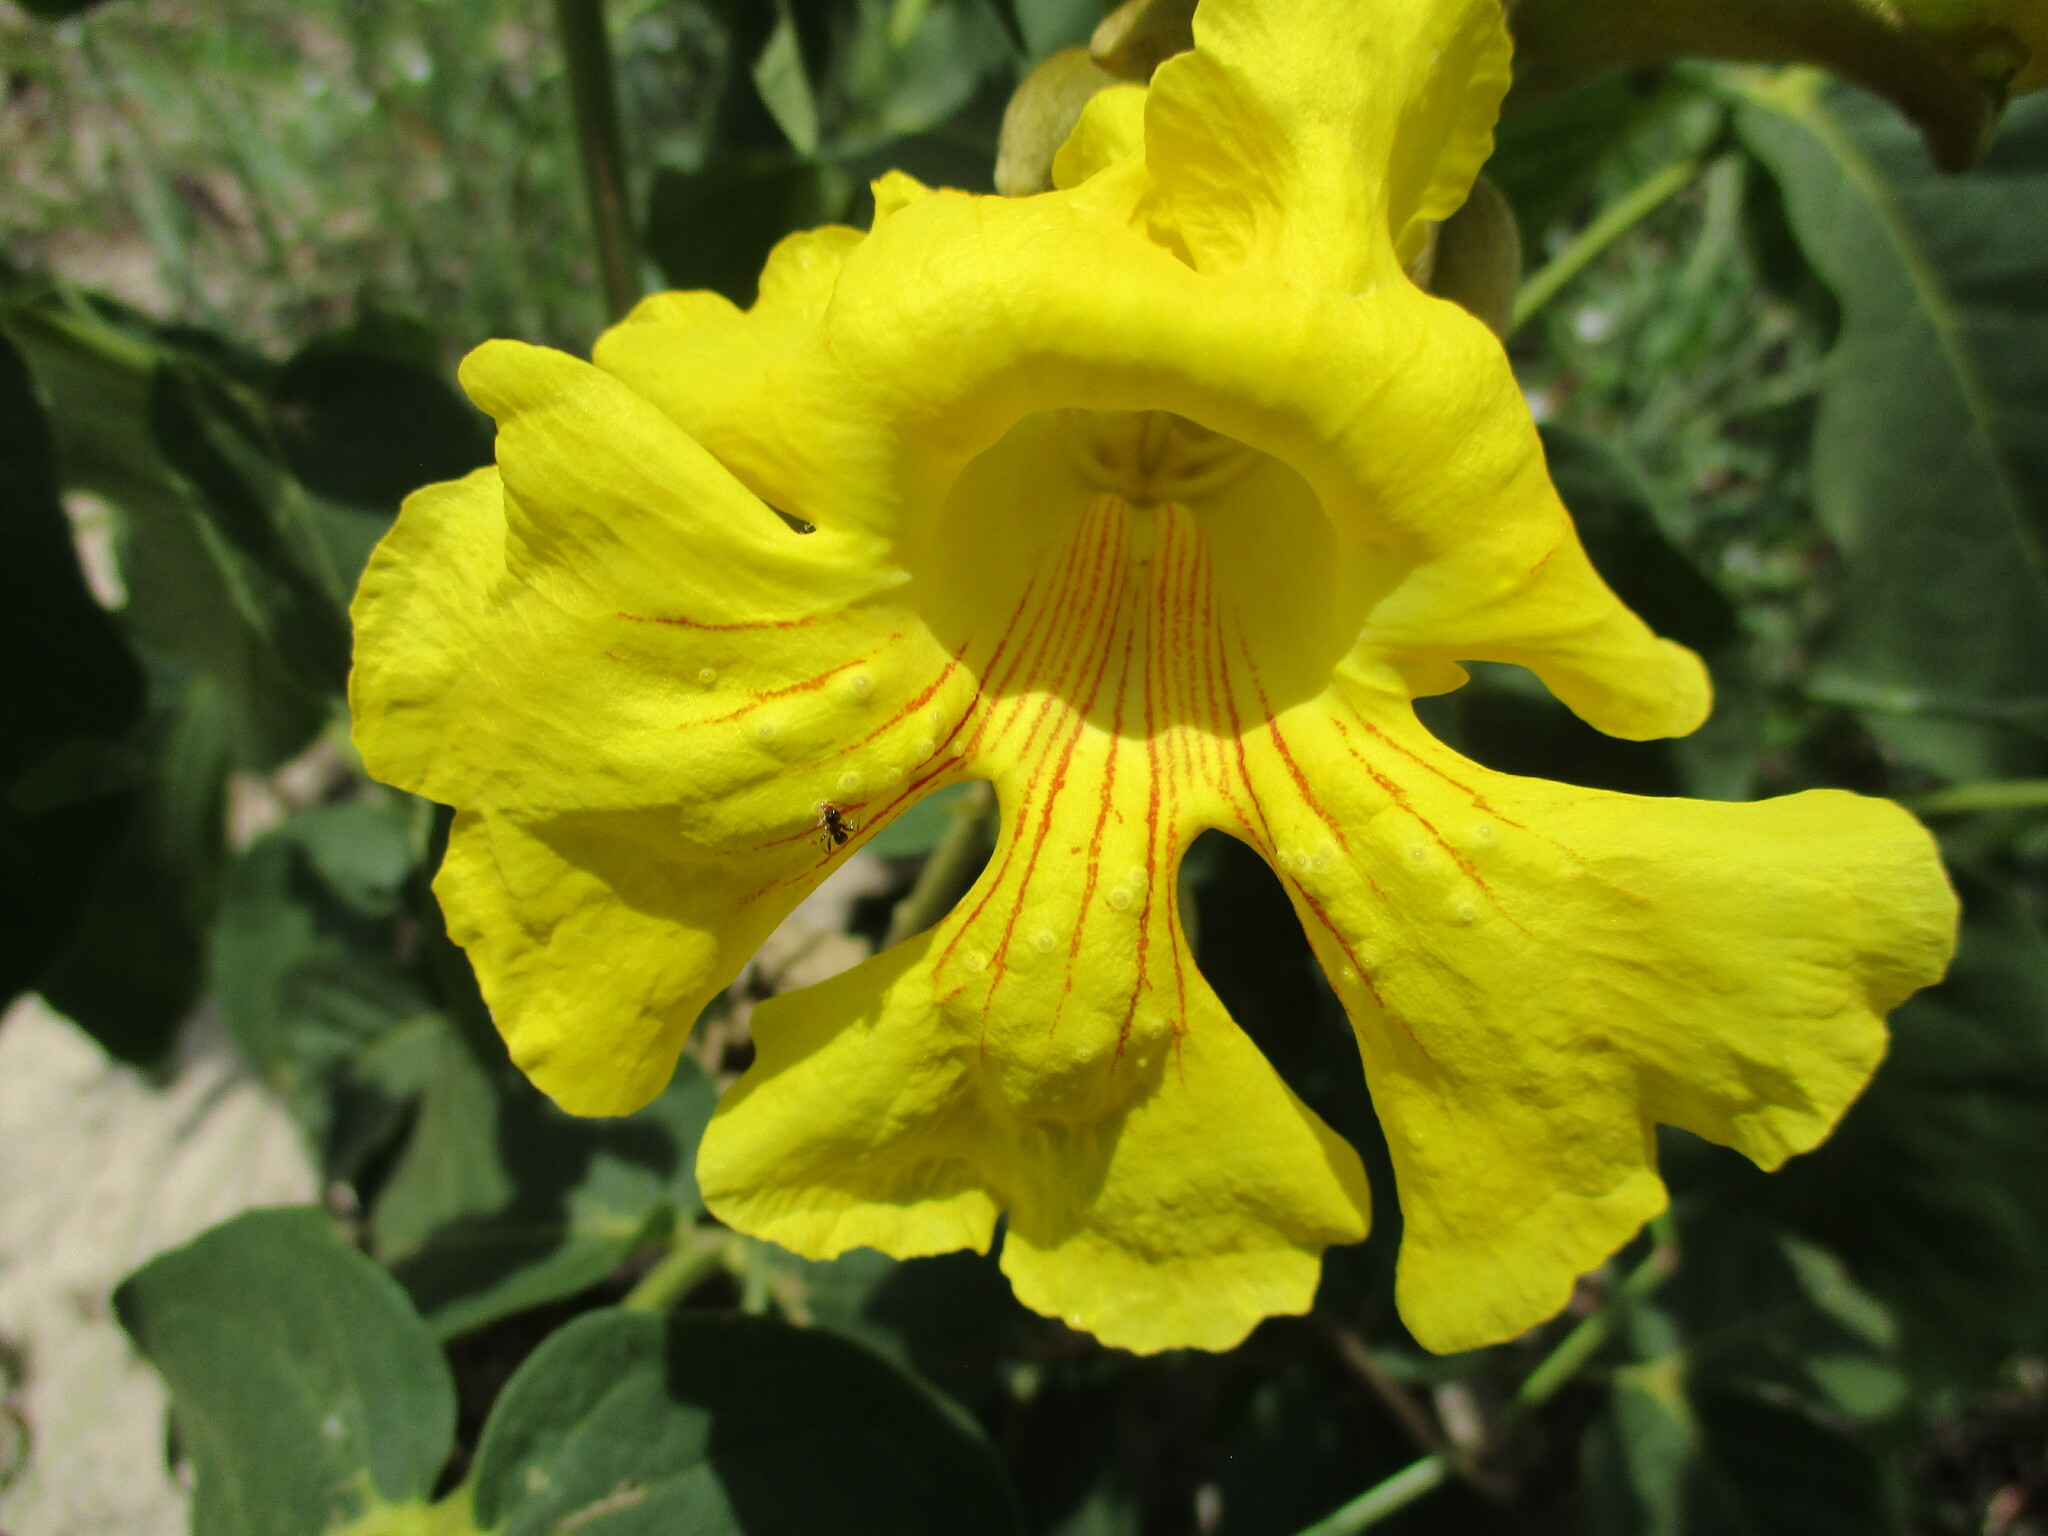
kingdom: Plantae
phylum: Tracheophyta
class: Magnoliopsida
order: Lamiales
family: Bignoniaceae
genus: Markhamia
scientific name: Markhamia obtusifolia
